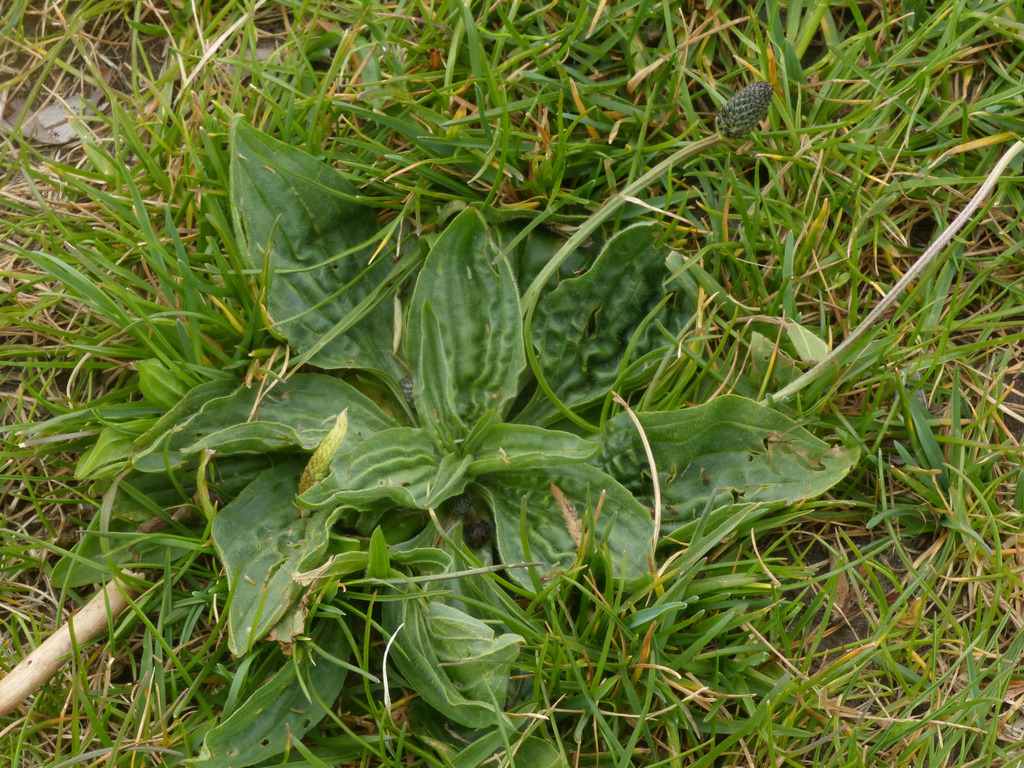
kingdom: Plantae
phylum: Tracheophyta
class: Magnoliopsida
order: Lamiales
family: Plantaginaceae
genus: Plantago
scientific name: Plantago major
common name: Common plantain
